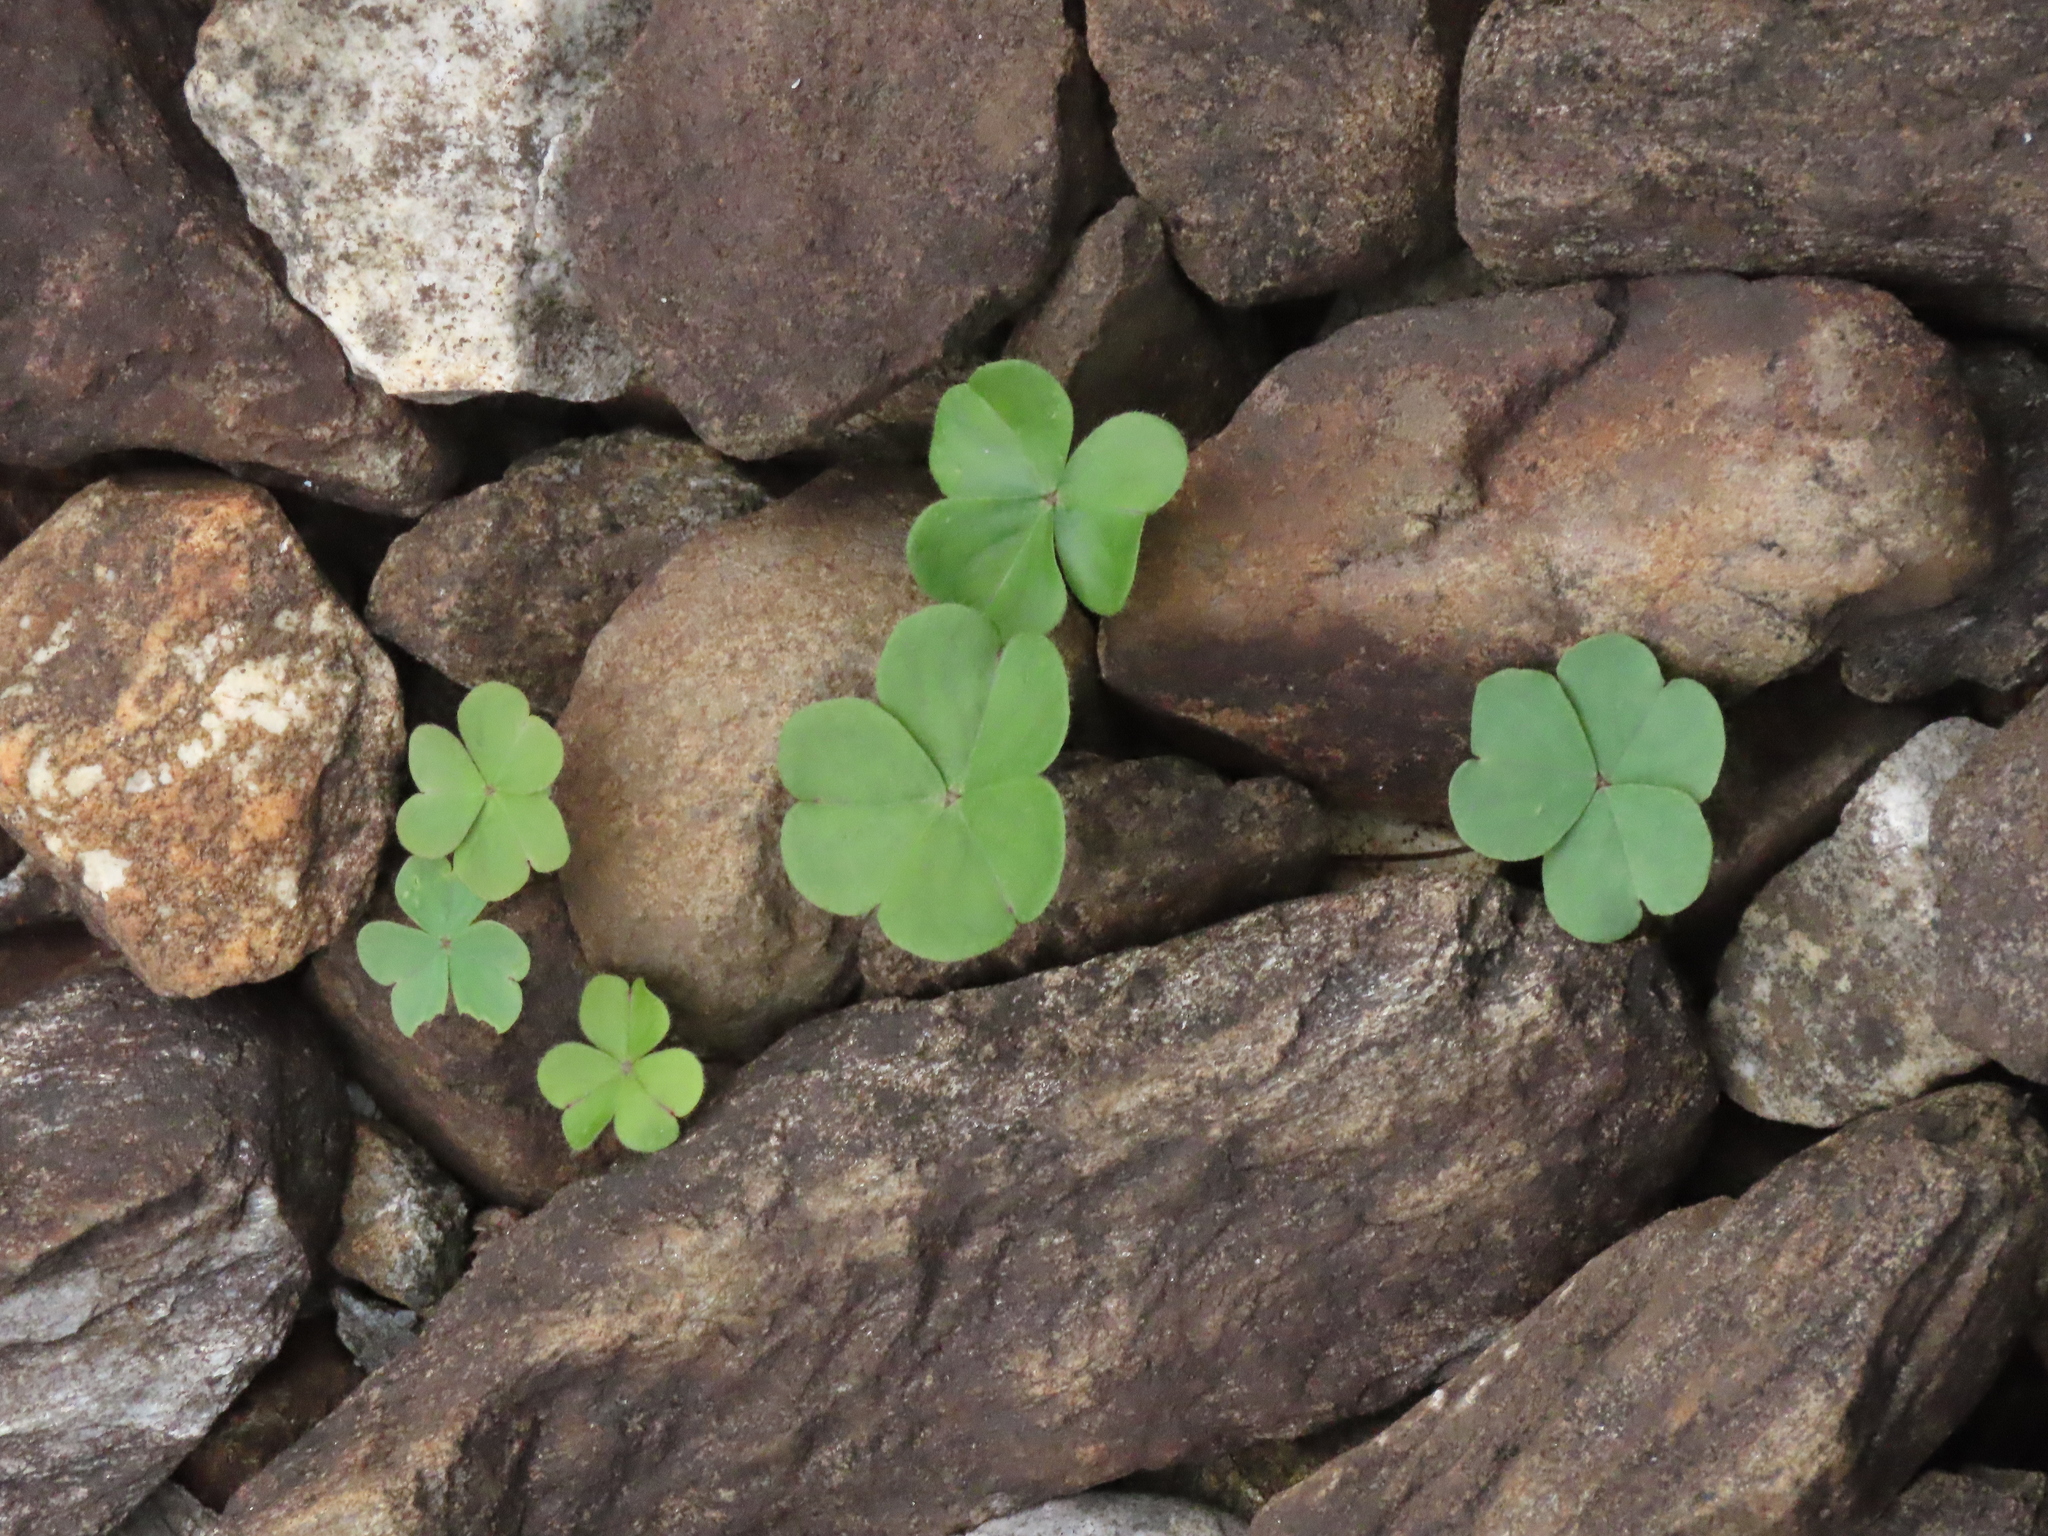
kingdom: Plantae
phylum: Tracheophyta
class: Magnoliopsida
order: Oxalidales
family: Oxalidaceae
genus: Oxalis
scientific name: Oxalis debilis
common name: Large-flowered pink-sorrel
